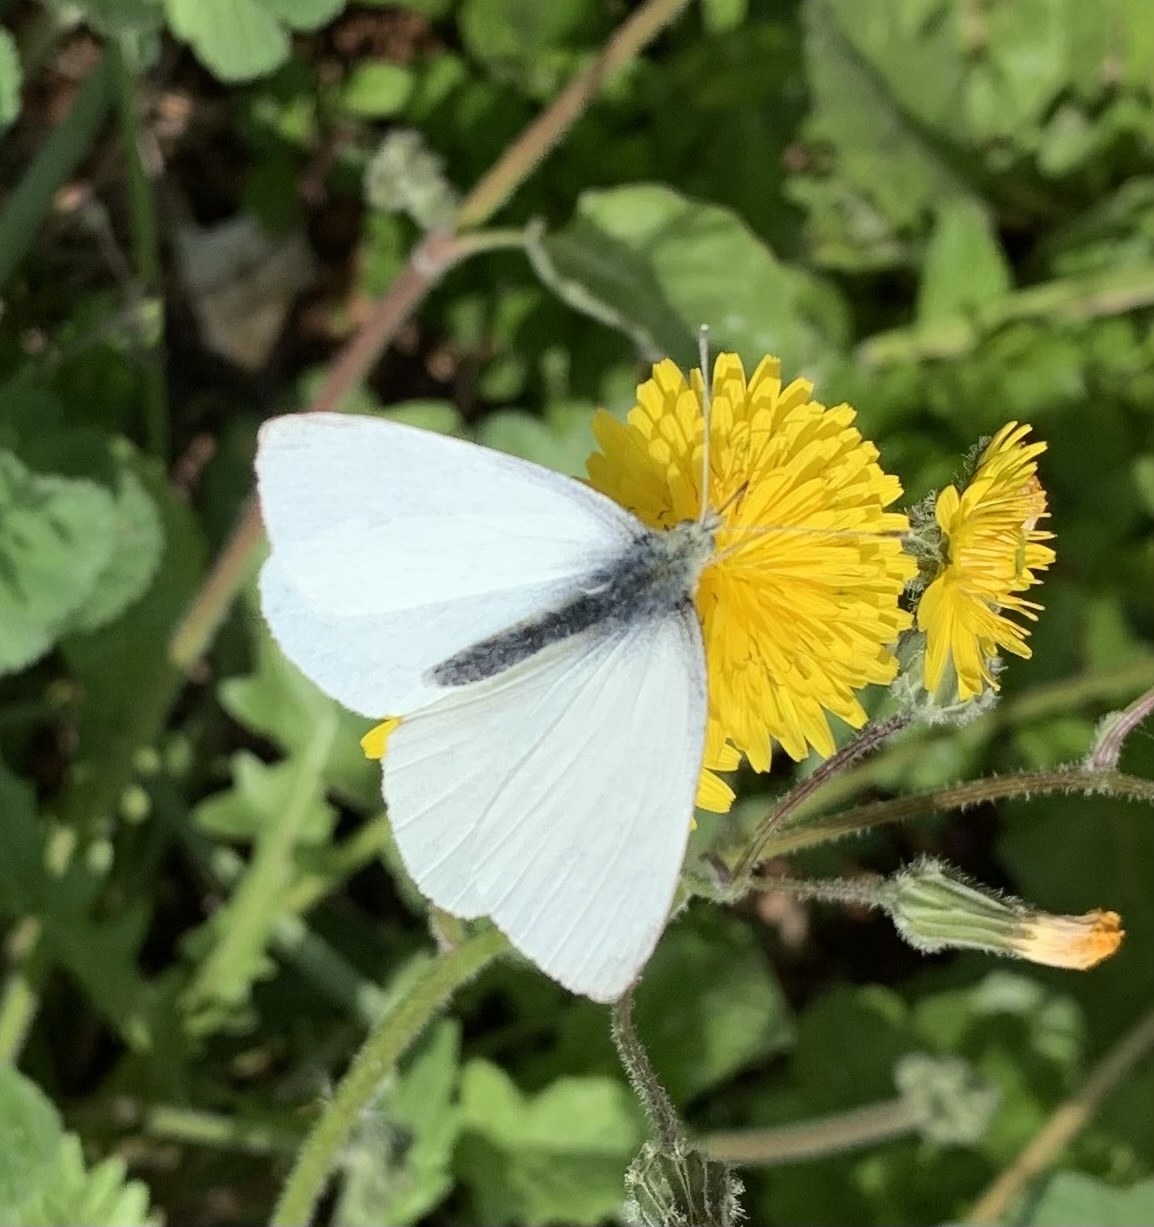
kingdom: Animalia
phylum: Arthropoda
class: Insecta
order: Lepidoptera
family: Pieridae
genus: Pieris
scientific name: Pieris rapae
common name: Small white
